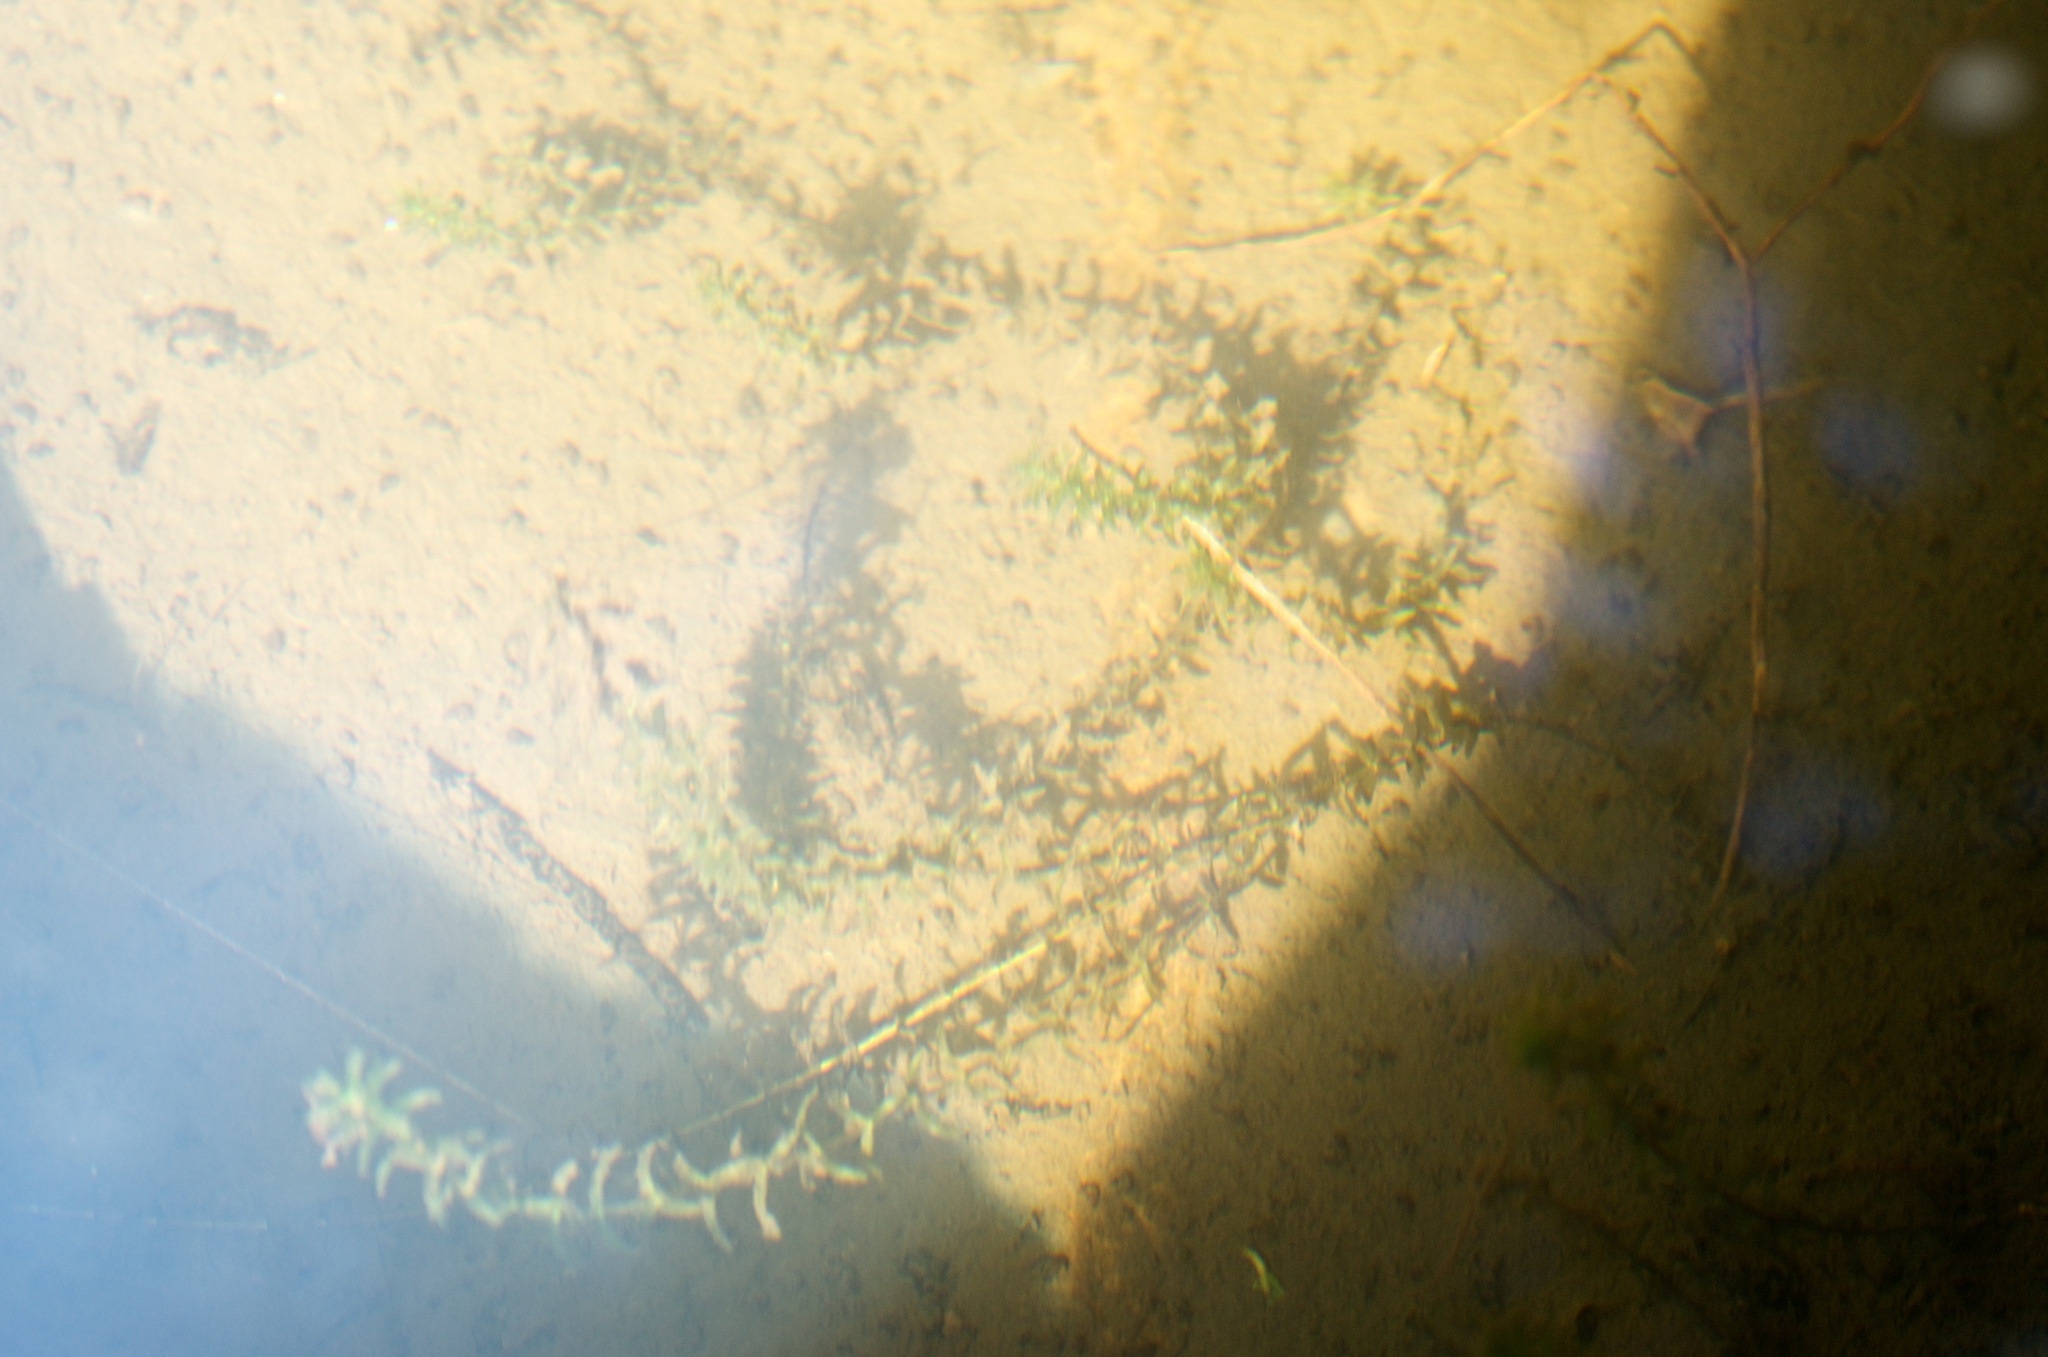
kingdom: Plantae
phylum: Tracheophyta
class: Liliopsida
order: Alismatales
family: Hydrocharitaceae
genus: Elodea
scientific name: Elodea canadensis
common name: Canadian waterweed
